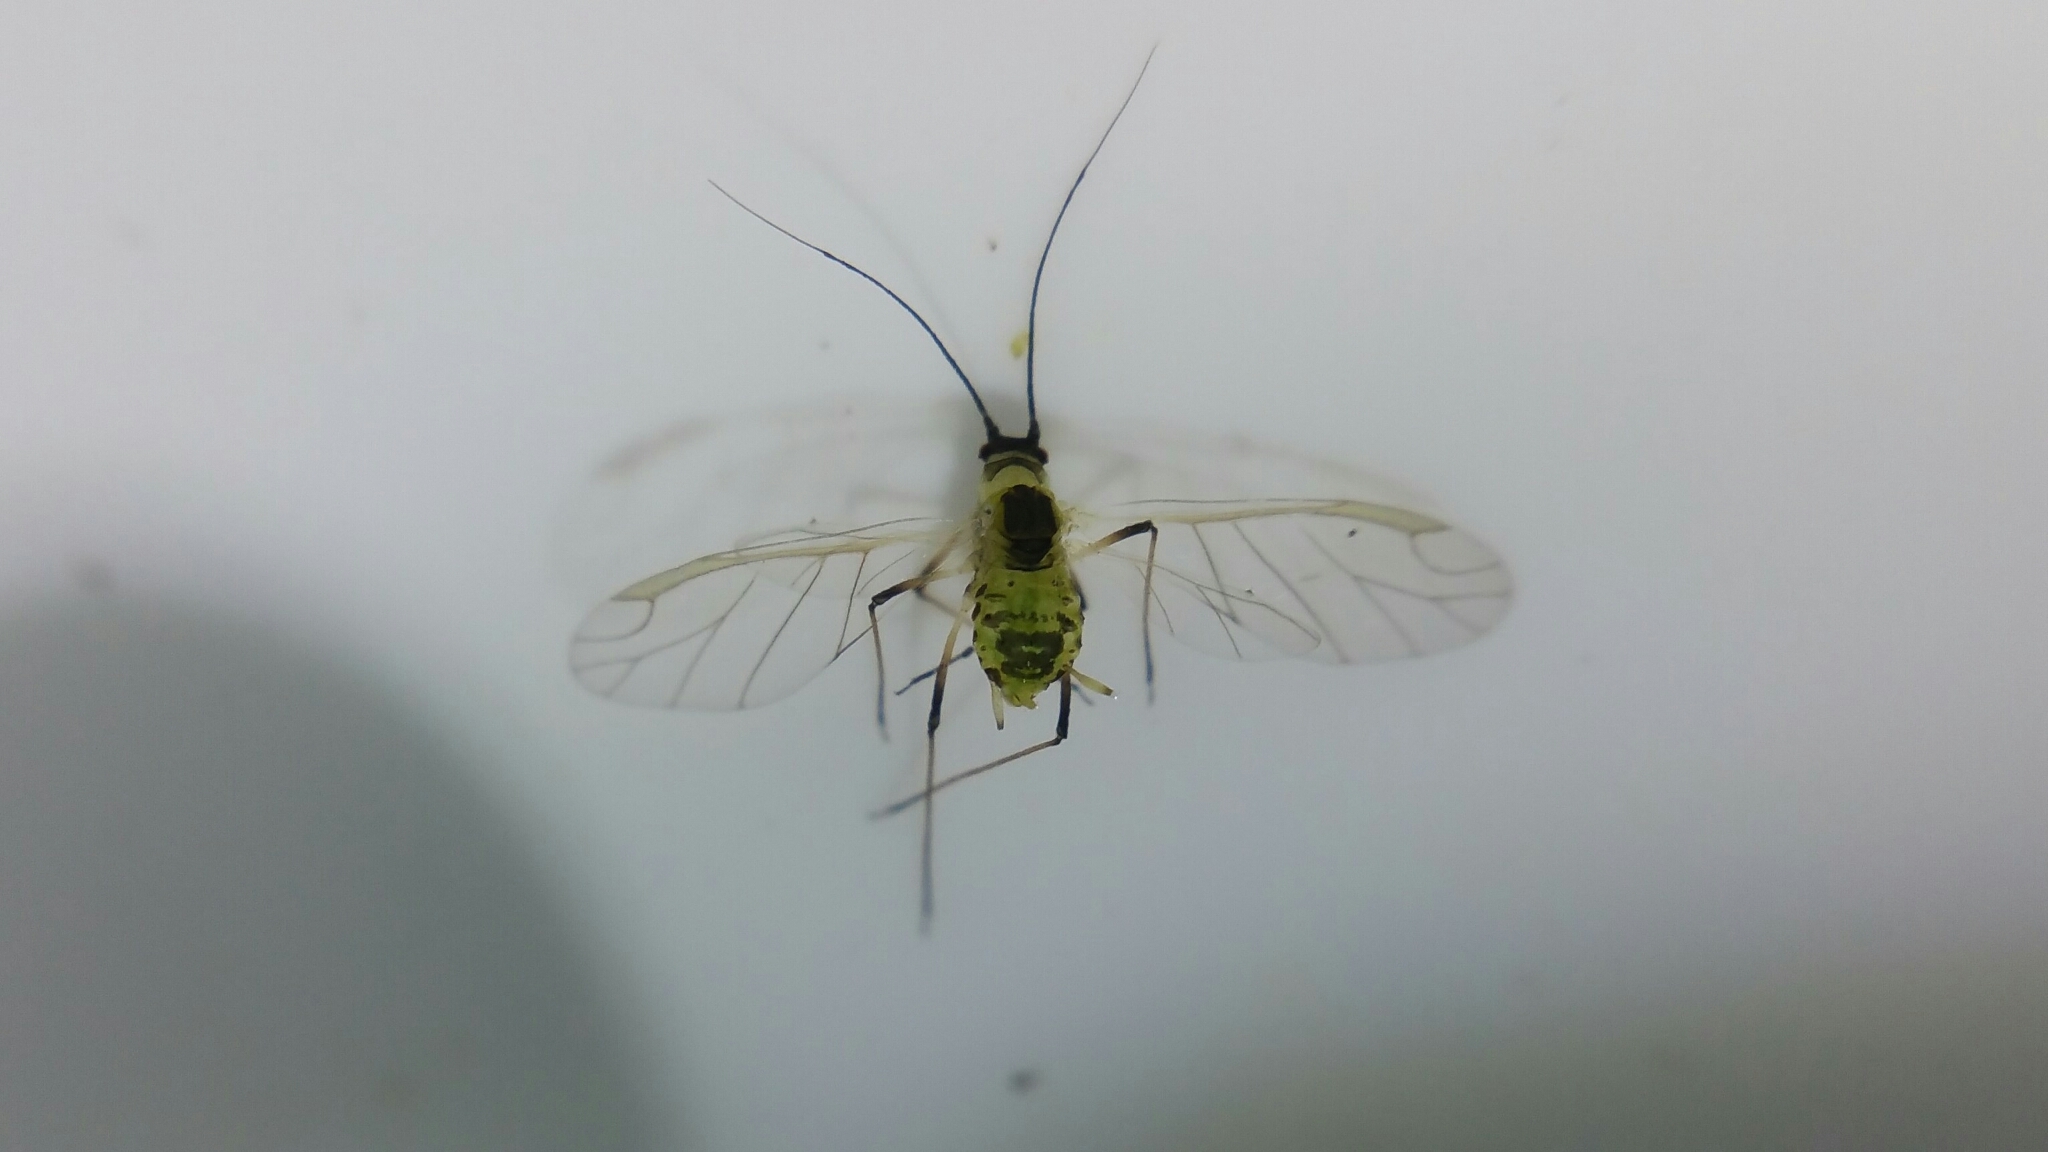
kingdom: Animalia
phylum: Arthropoda
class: Insecta
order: Hemiptera
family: Aphididae
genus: Hyperomyzus
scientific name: Hyperomyzus lactucae
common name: Sow thistle aphid
